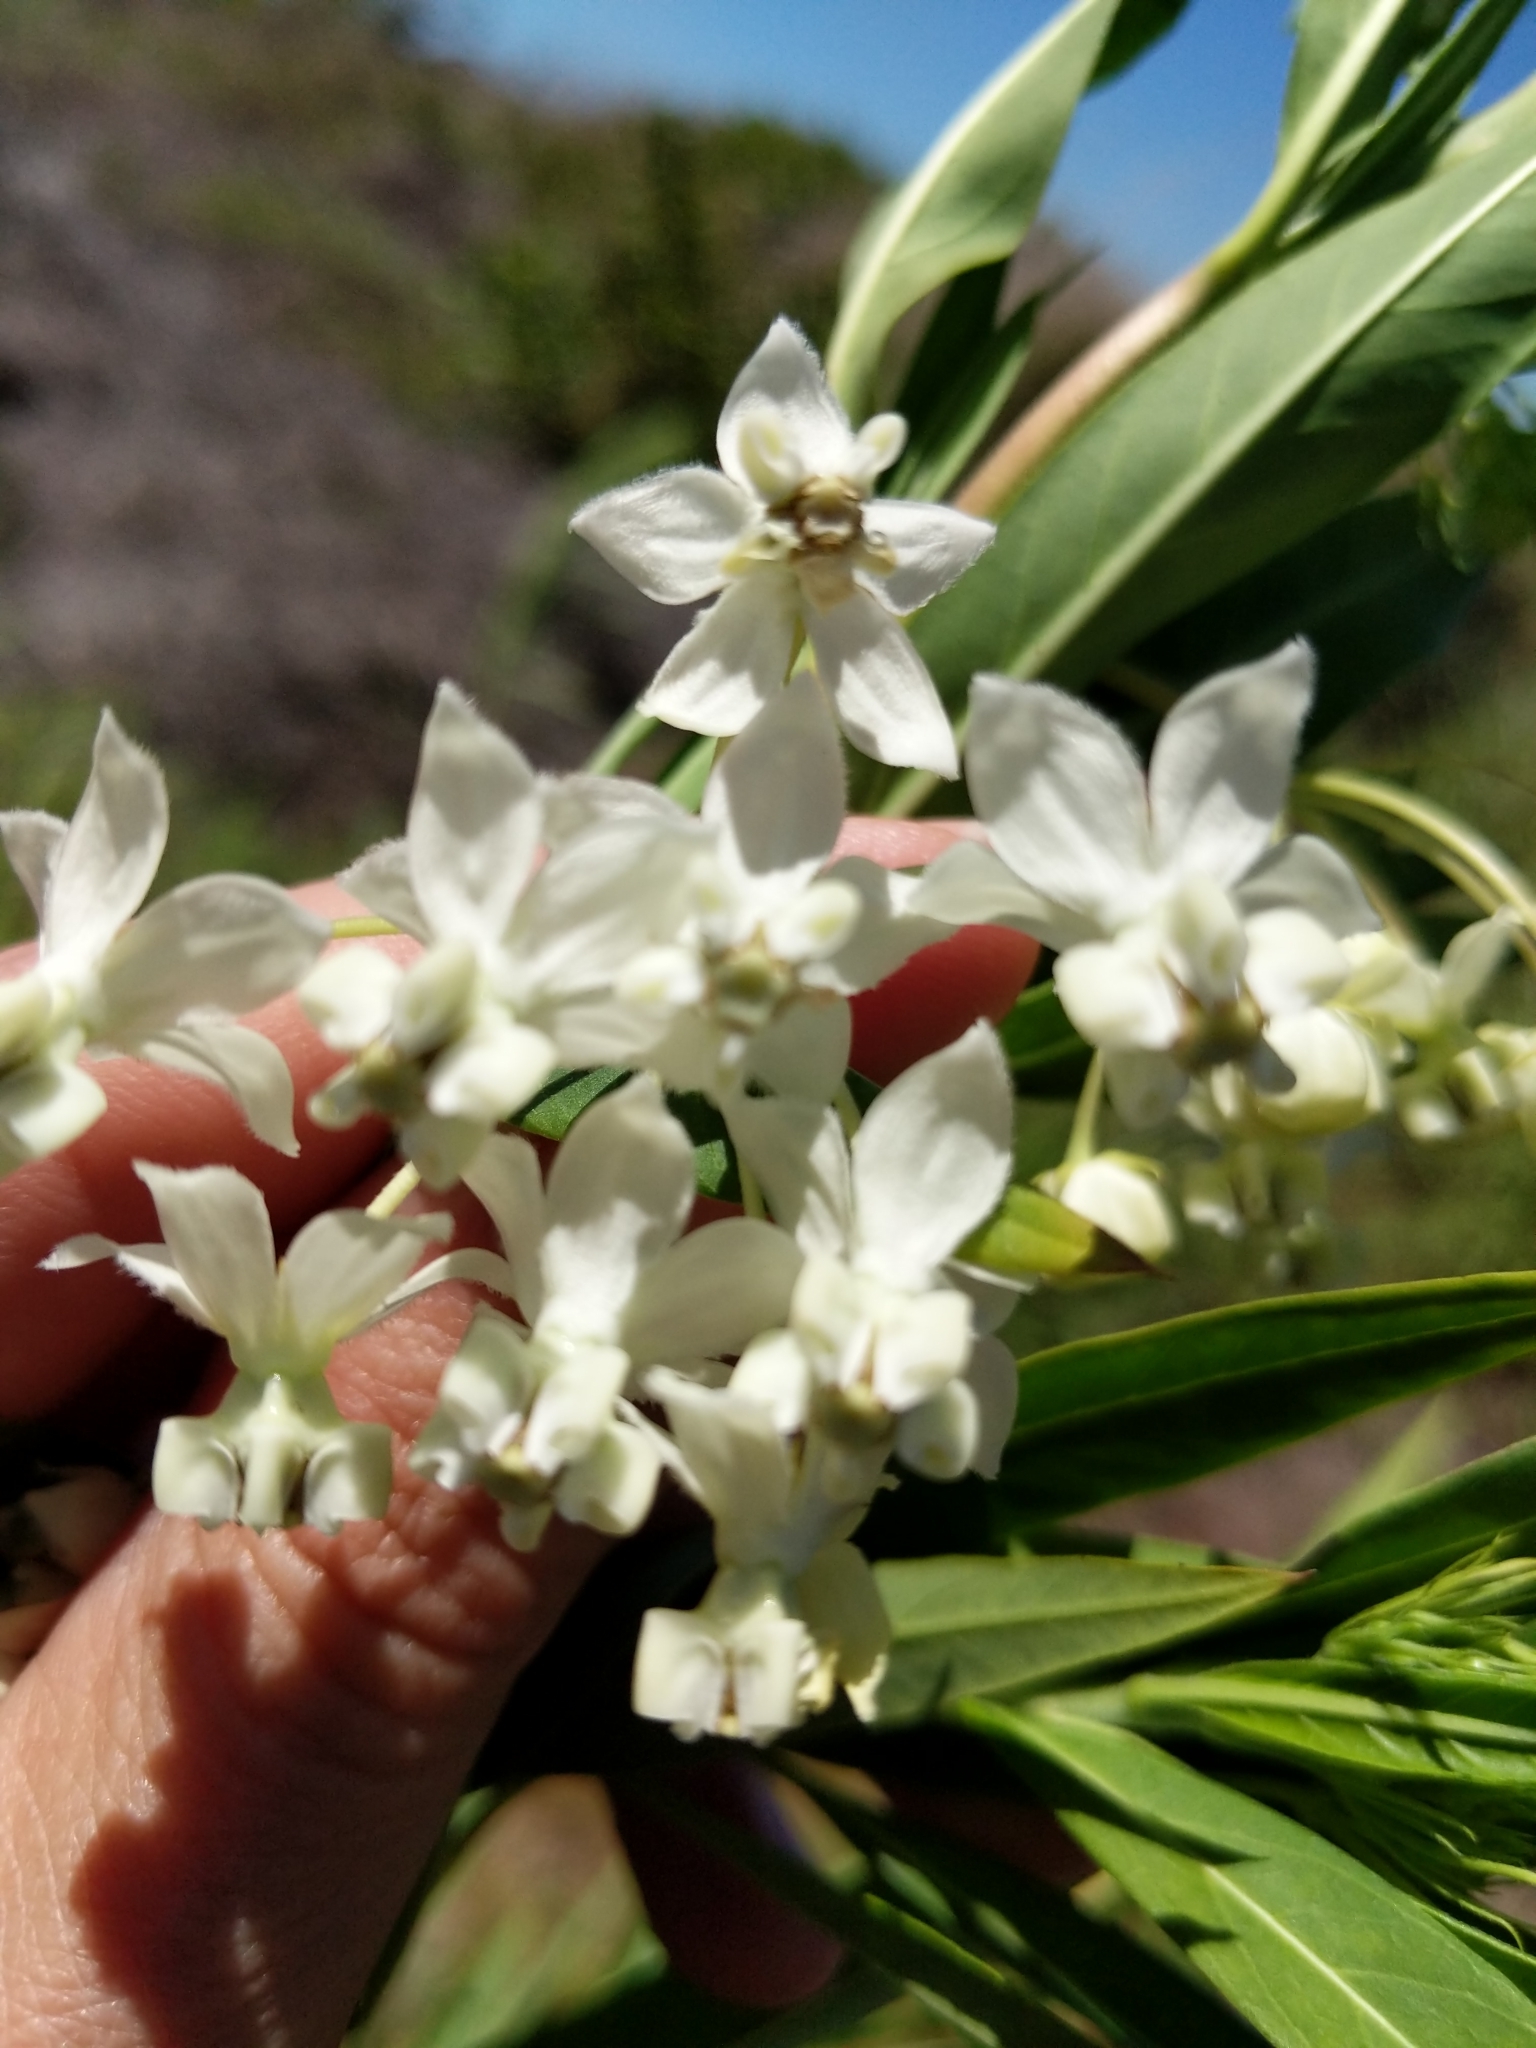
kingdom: Plantae
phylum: Tracheophyta
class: Magnoliopsida
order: Gentianales
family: Apocynaceae
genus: Gomphocarpus
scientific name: Gomphocarpus physocarpus
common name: Balloon cotton bush
